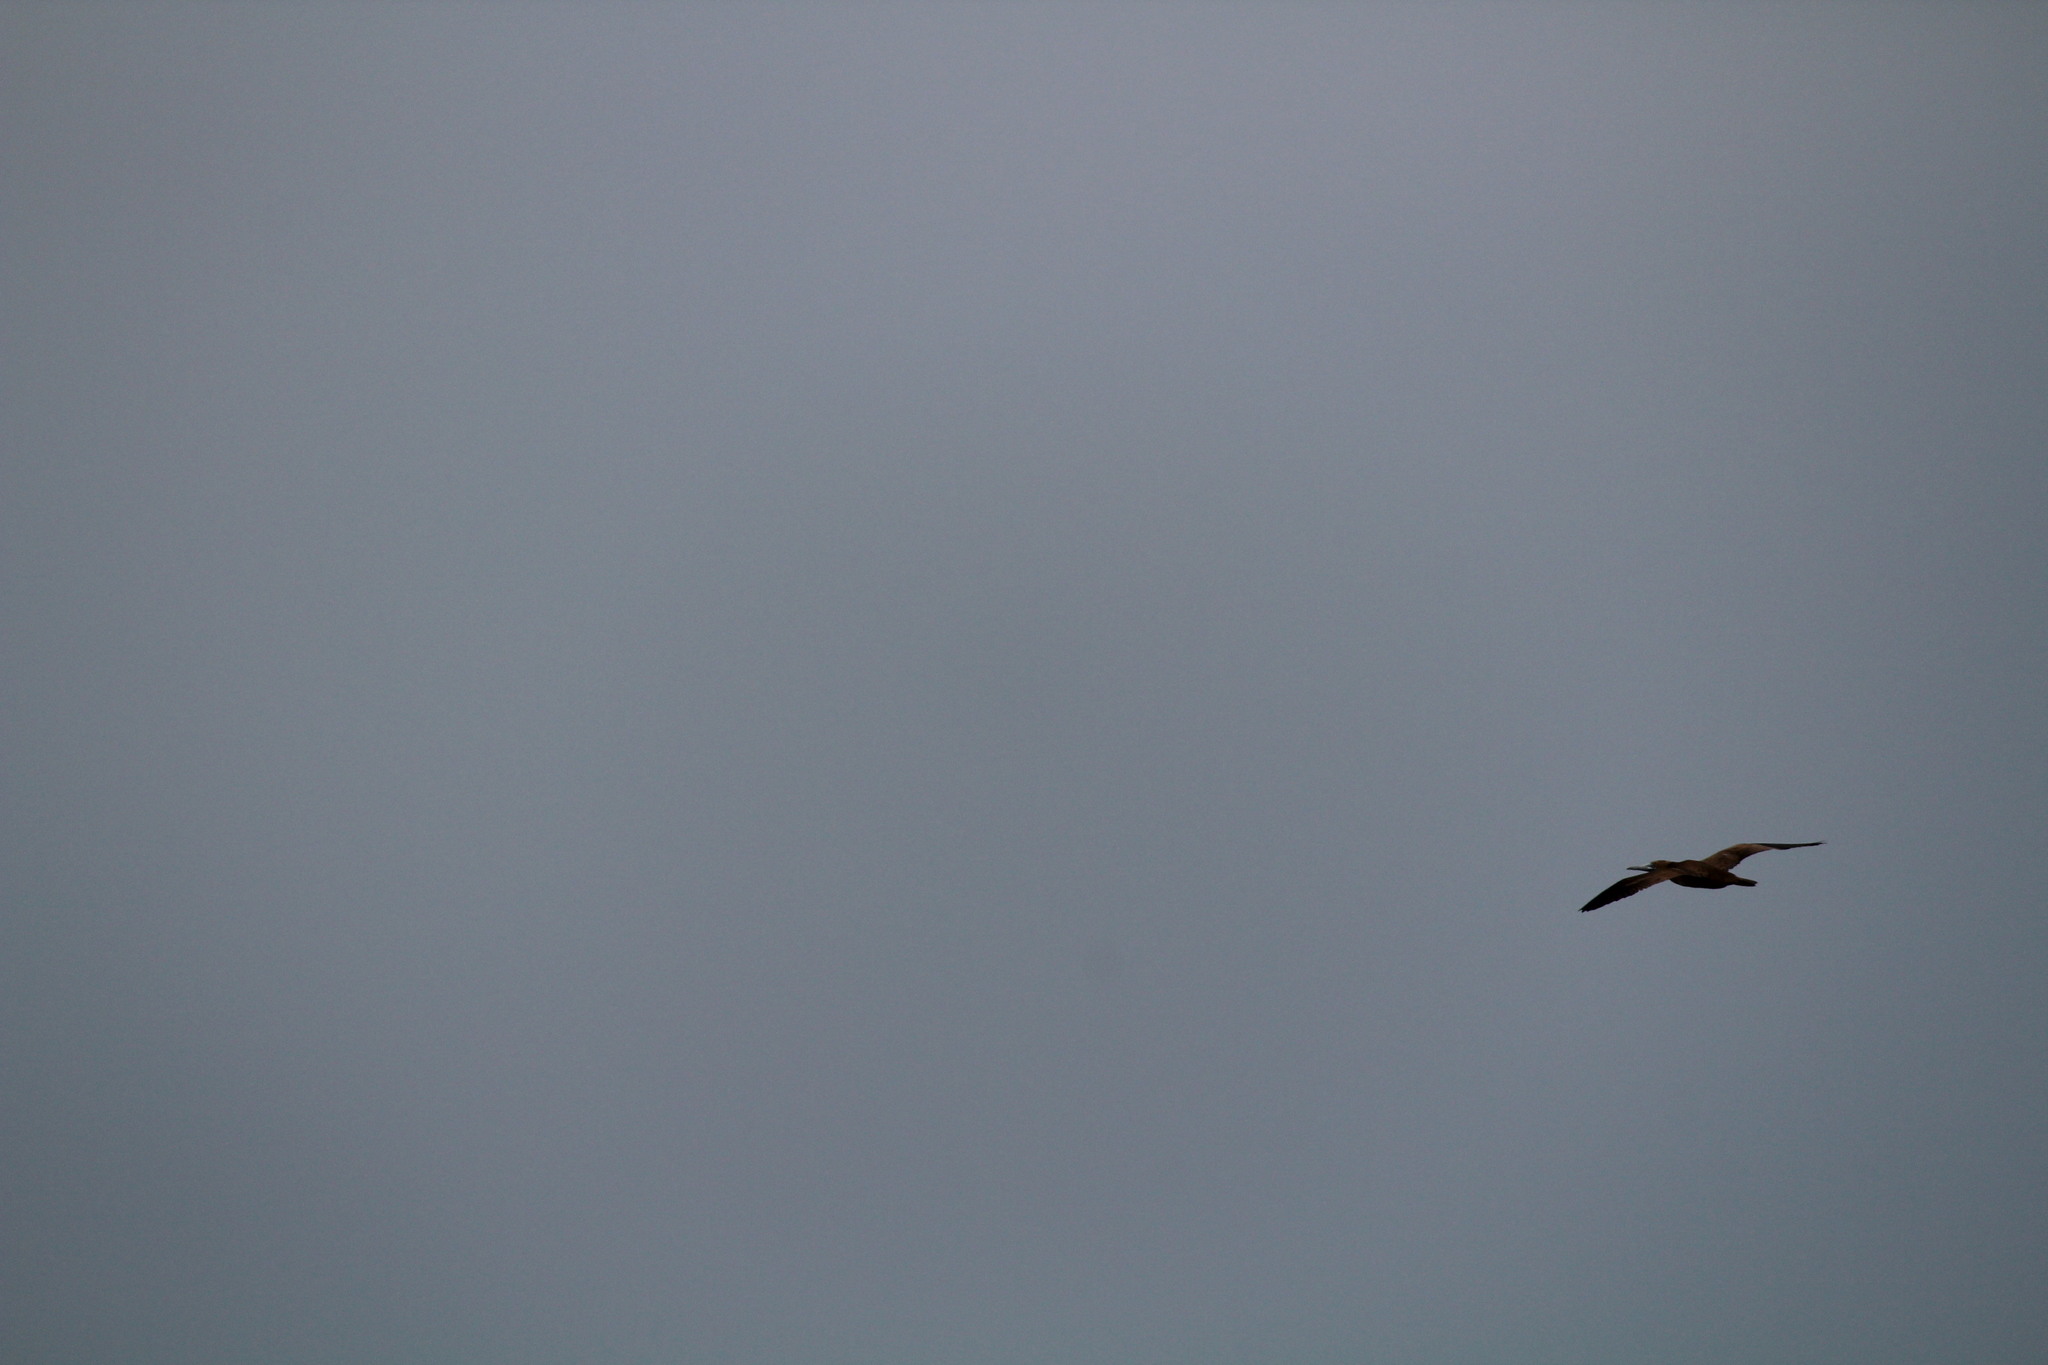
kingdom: Animalia
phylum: Chordata
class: Aves
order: Suliformes
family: Sulidae
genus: Sula
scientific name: Sula leucogaster
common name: Brown booby
